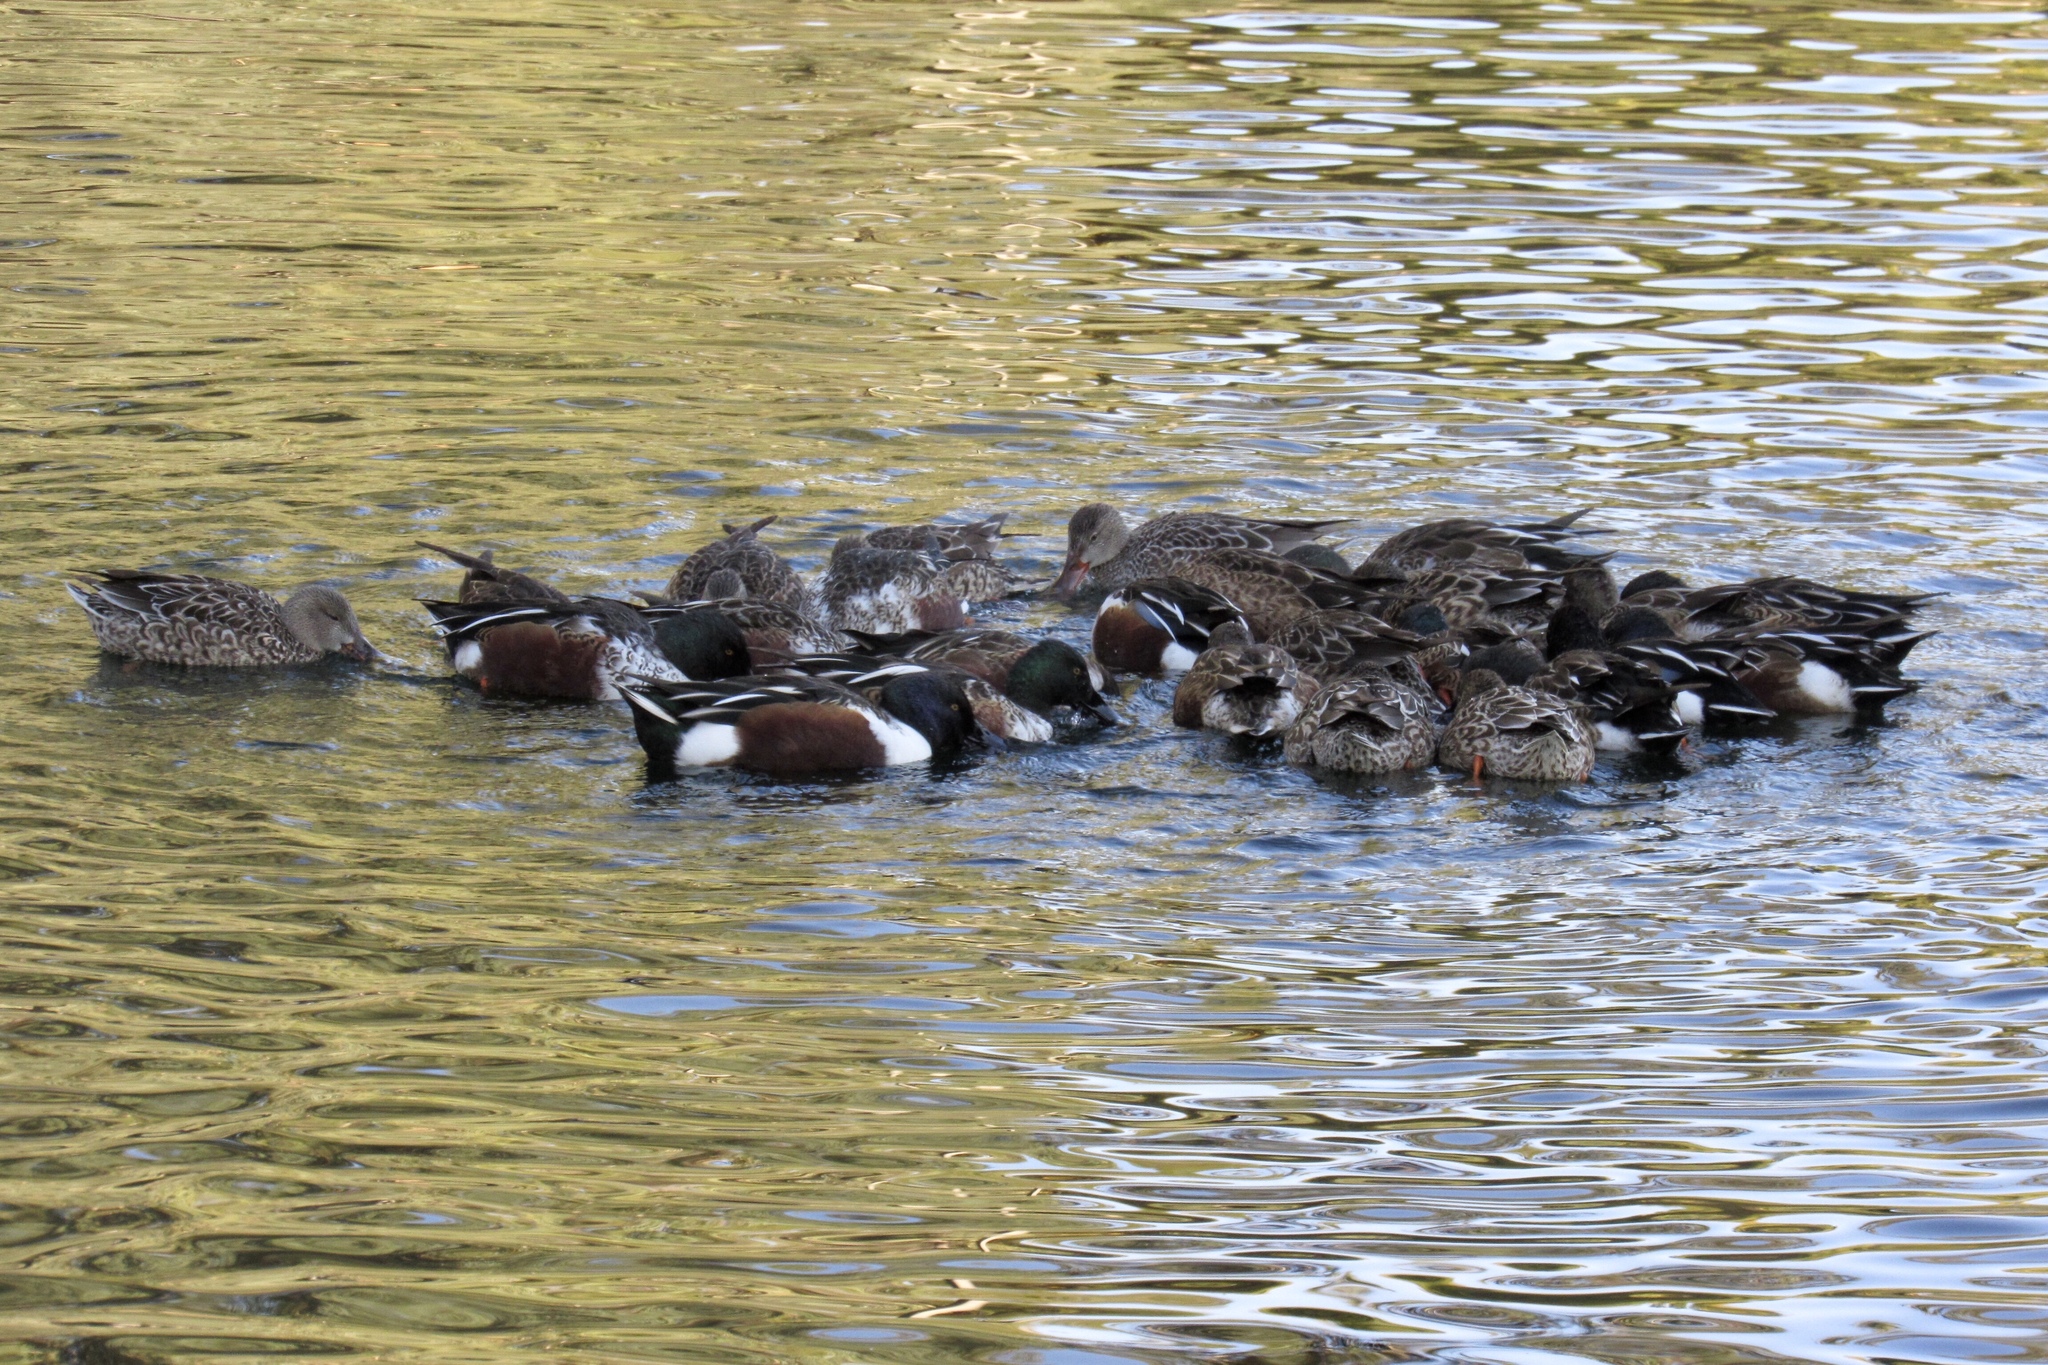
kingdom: Animalia
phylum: Chordata
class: Aves
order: Anseriformes
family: Anatidae
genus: Spatula
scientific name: Spatula clypeata
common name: Northern shoveler
